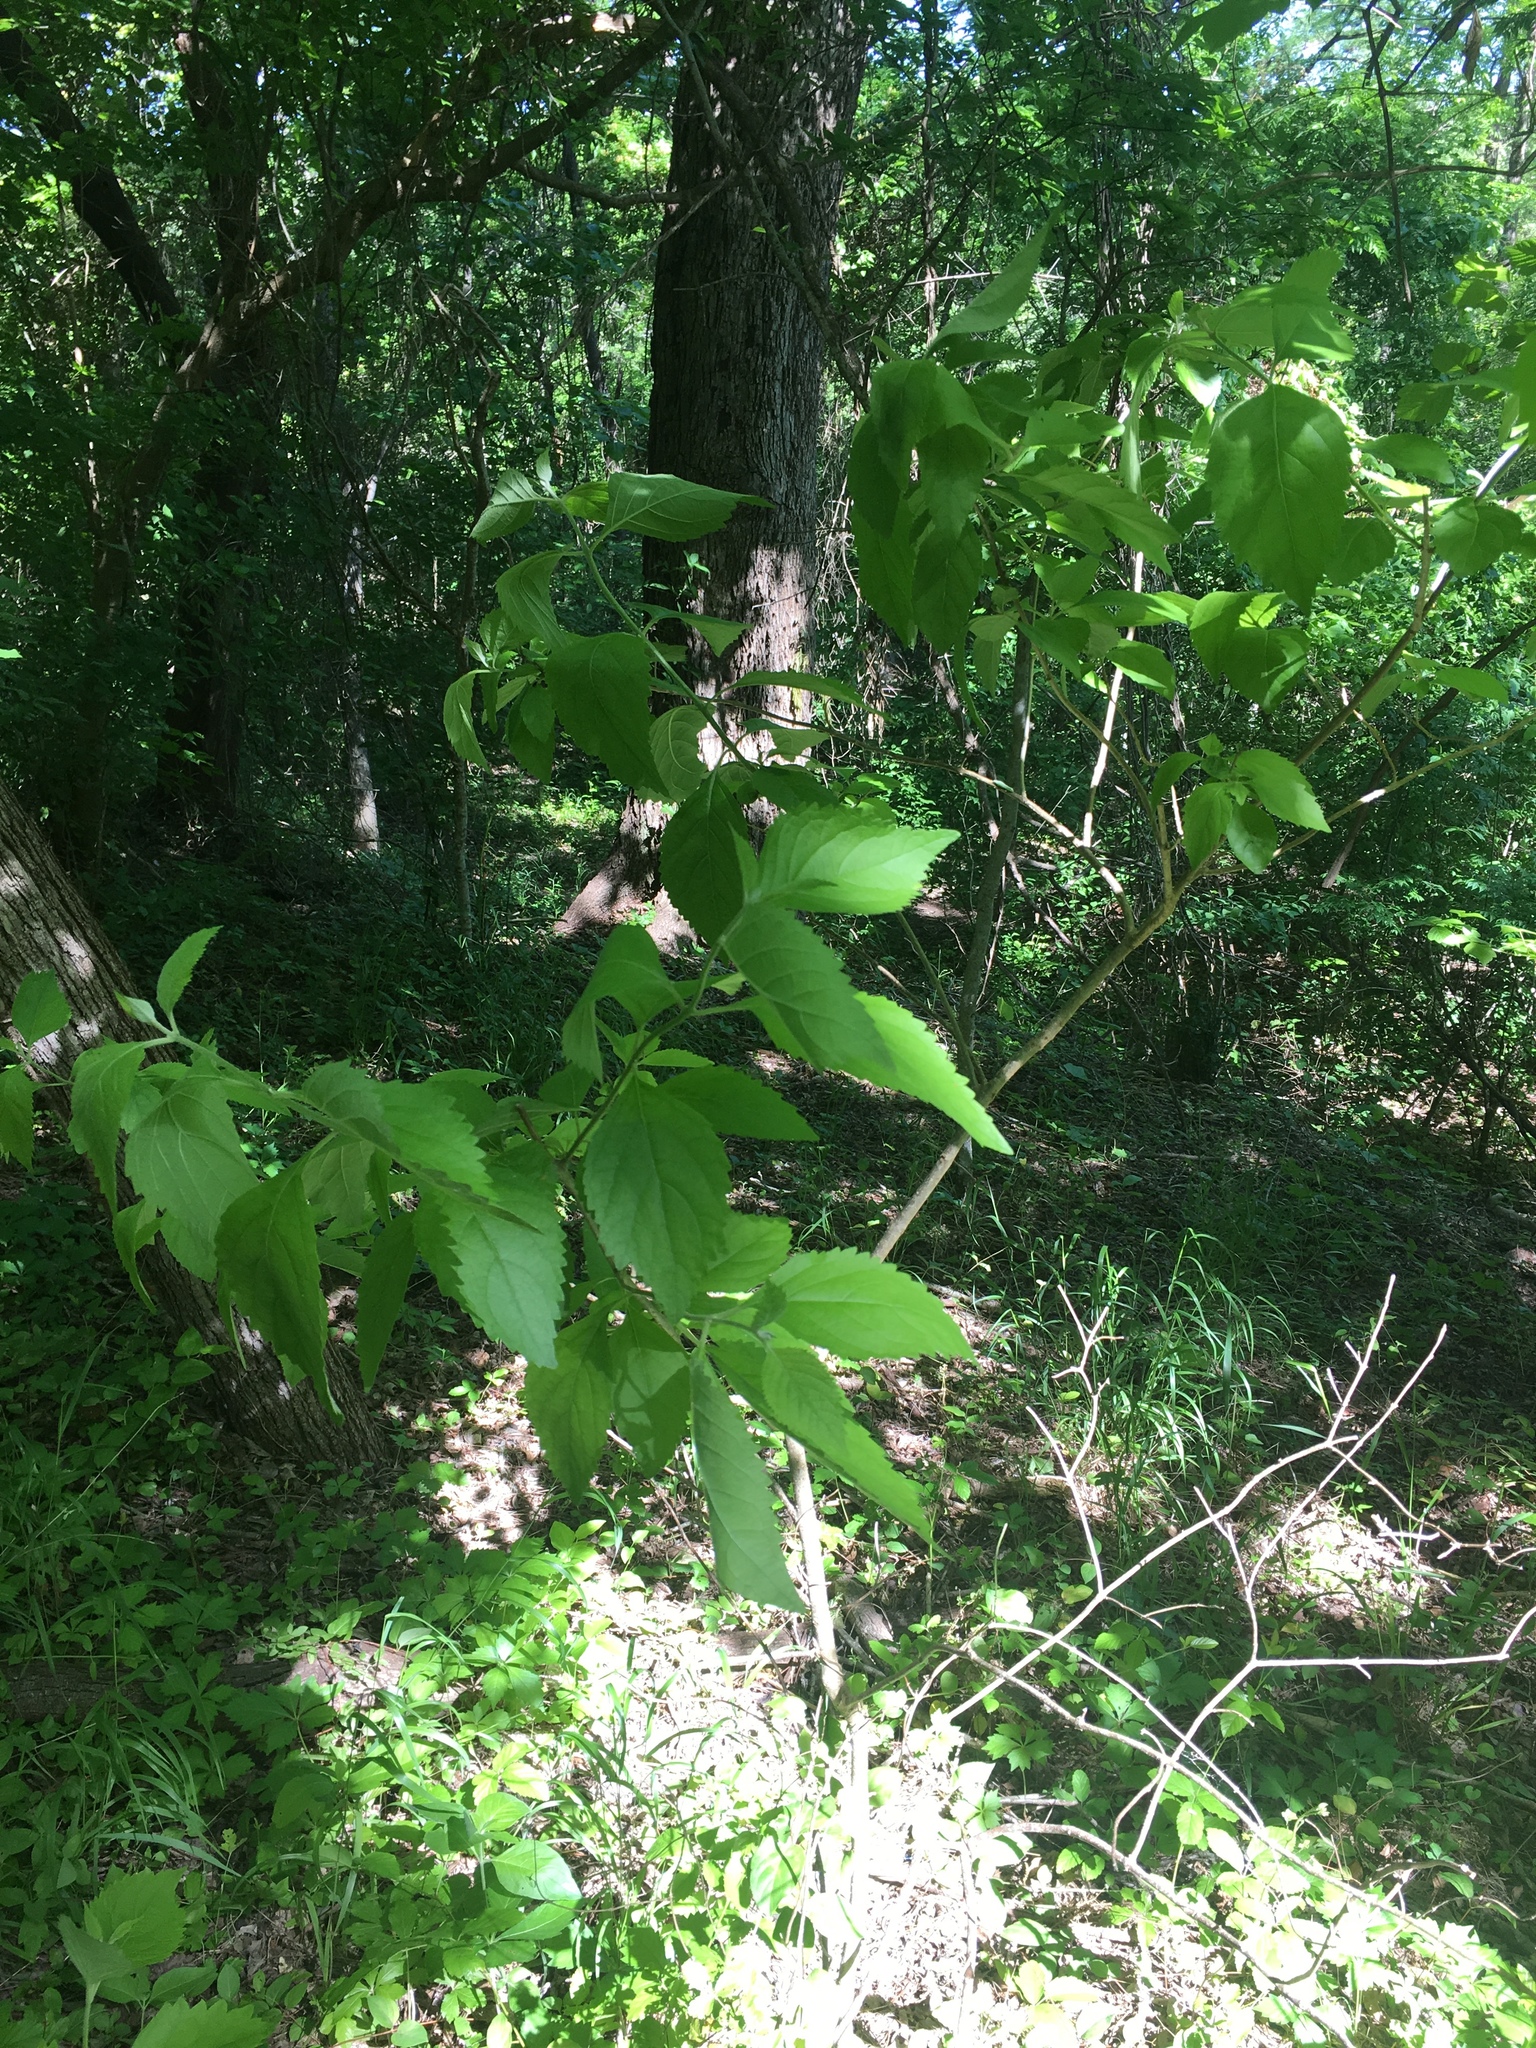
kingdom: Plantae
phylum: Tracheophyta
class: Magnoliopsida
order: Lamiales
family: Lamiaceae
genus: Callicarpa
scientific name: Callicarpa americana
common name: American beautyberry
